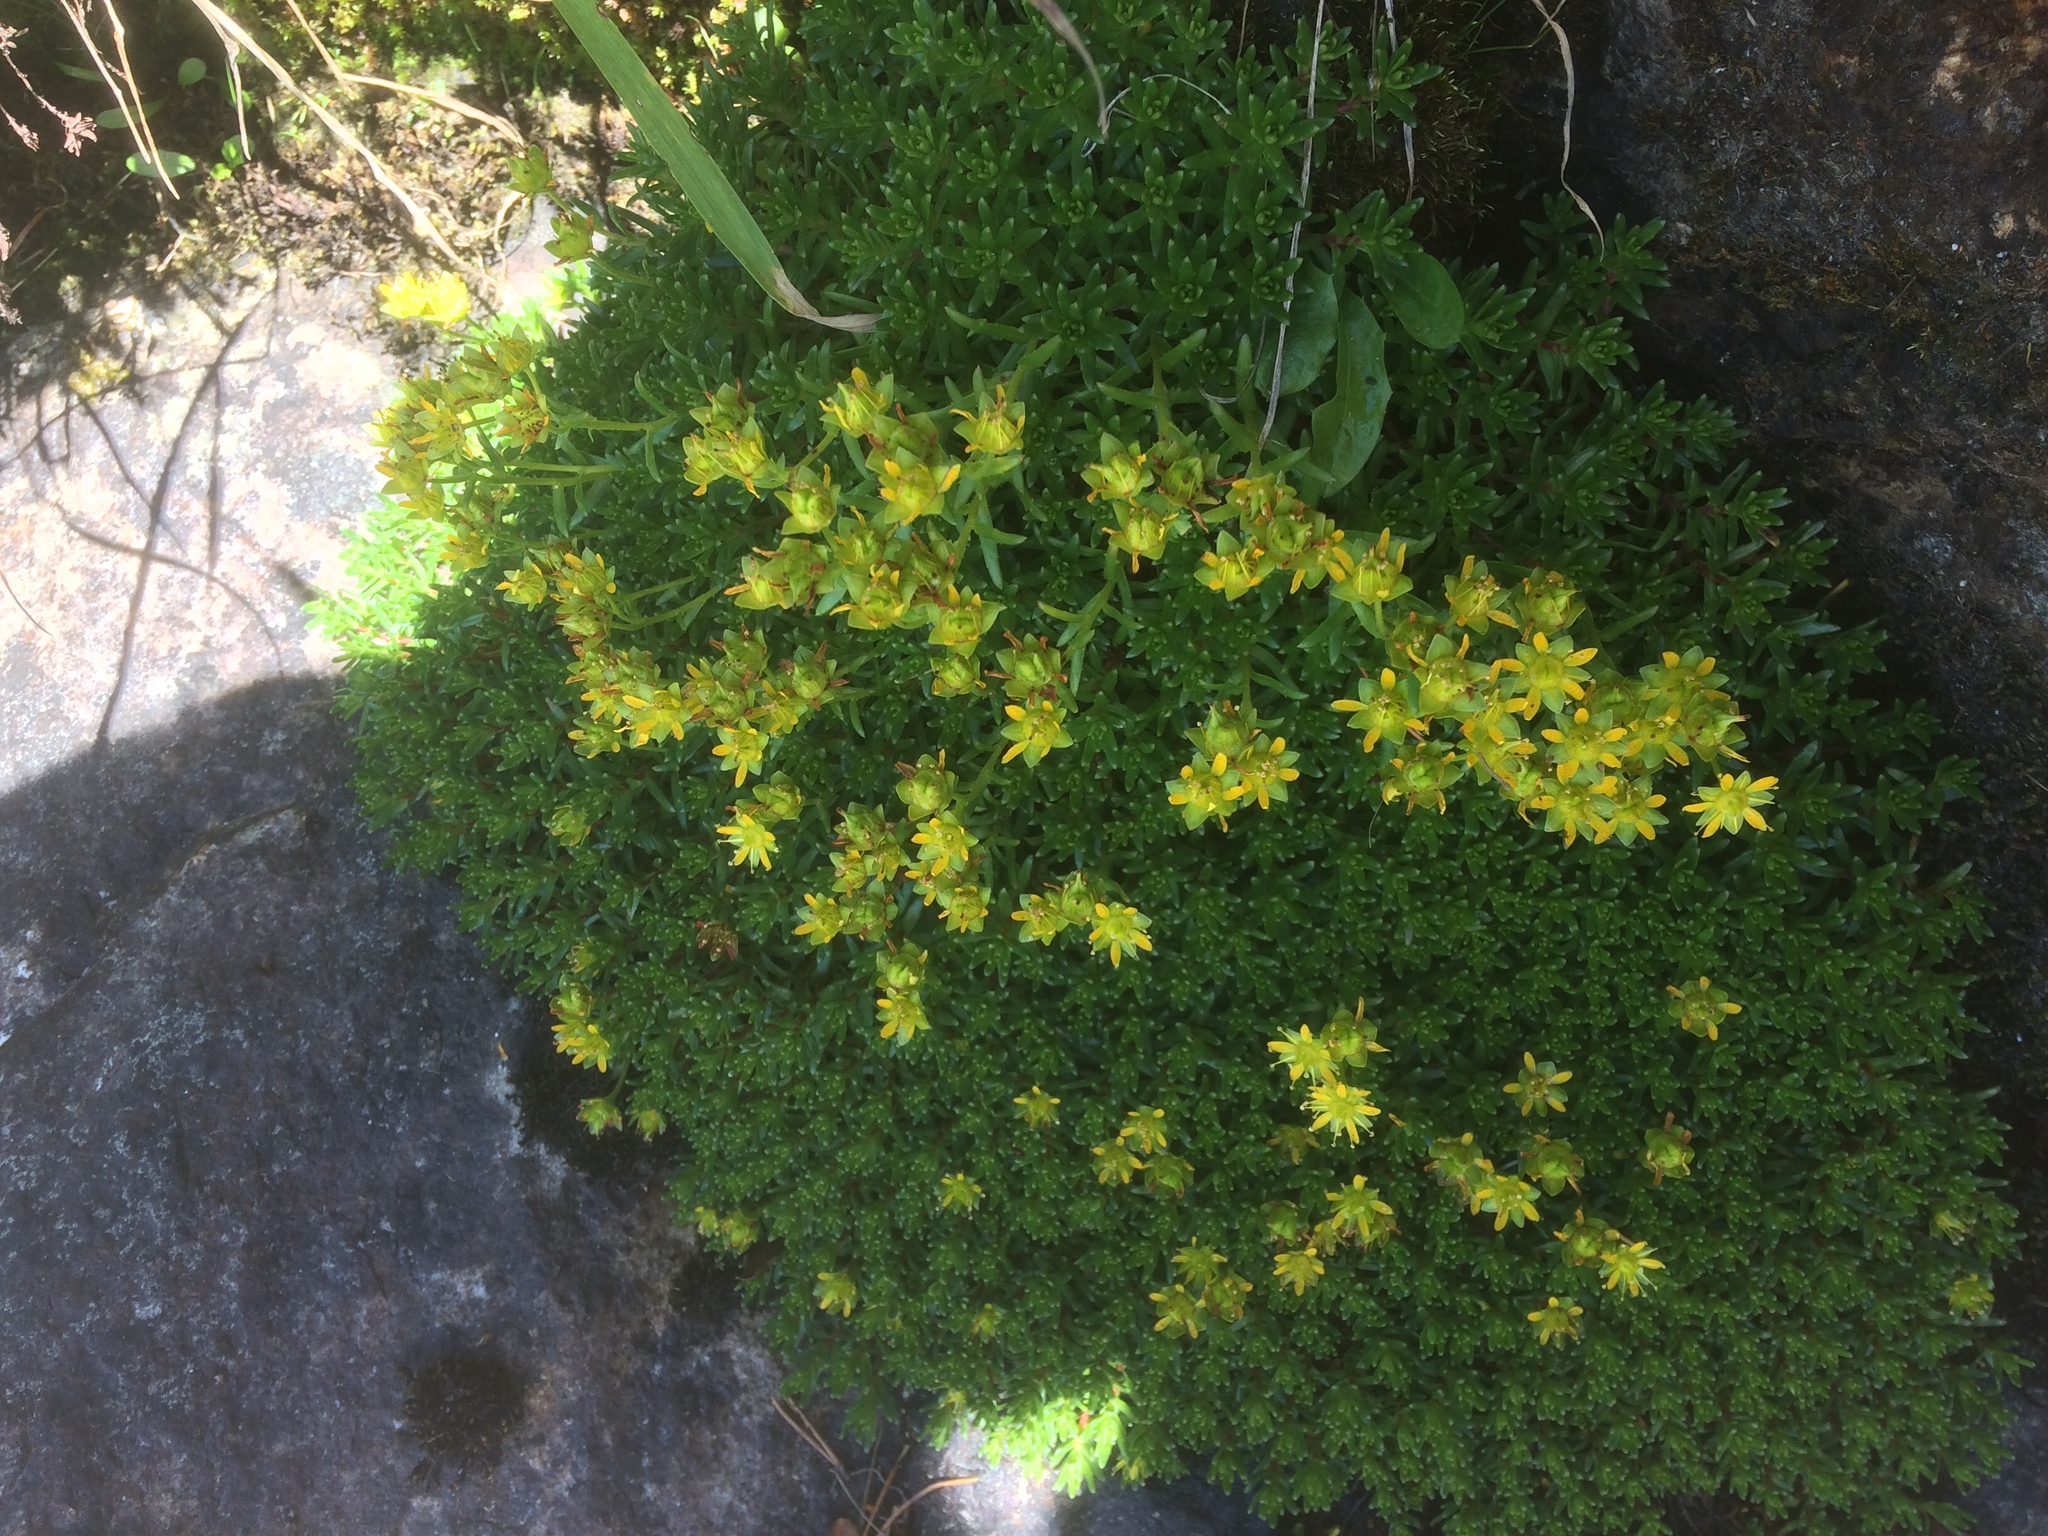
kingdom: Plantae
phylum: Tracheophyta
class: Magnoliopsida
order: Saxifragales
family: Saxifragaceae
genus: Saxifraga
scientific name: Saxifraga aizoides
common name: Yellow mountain saxifrage
